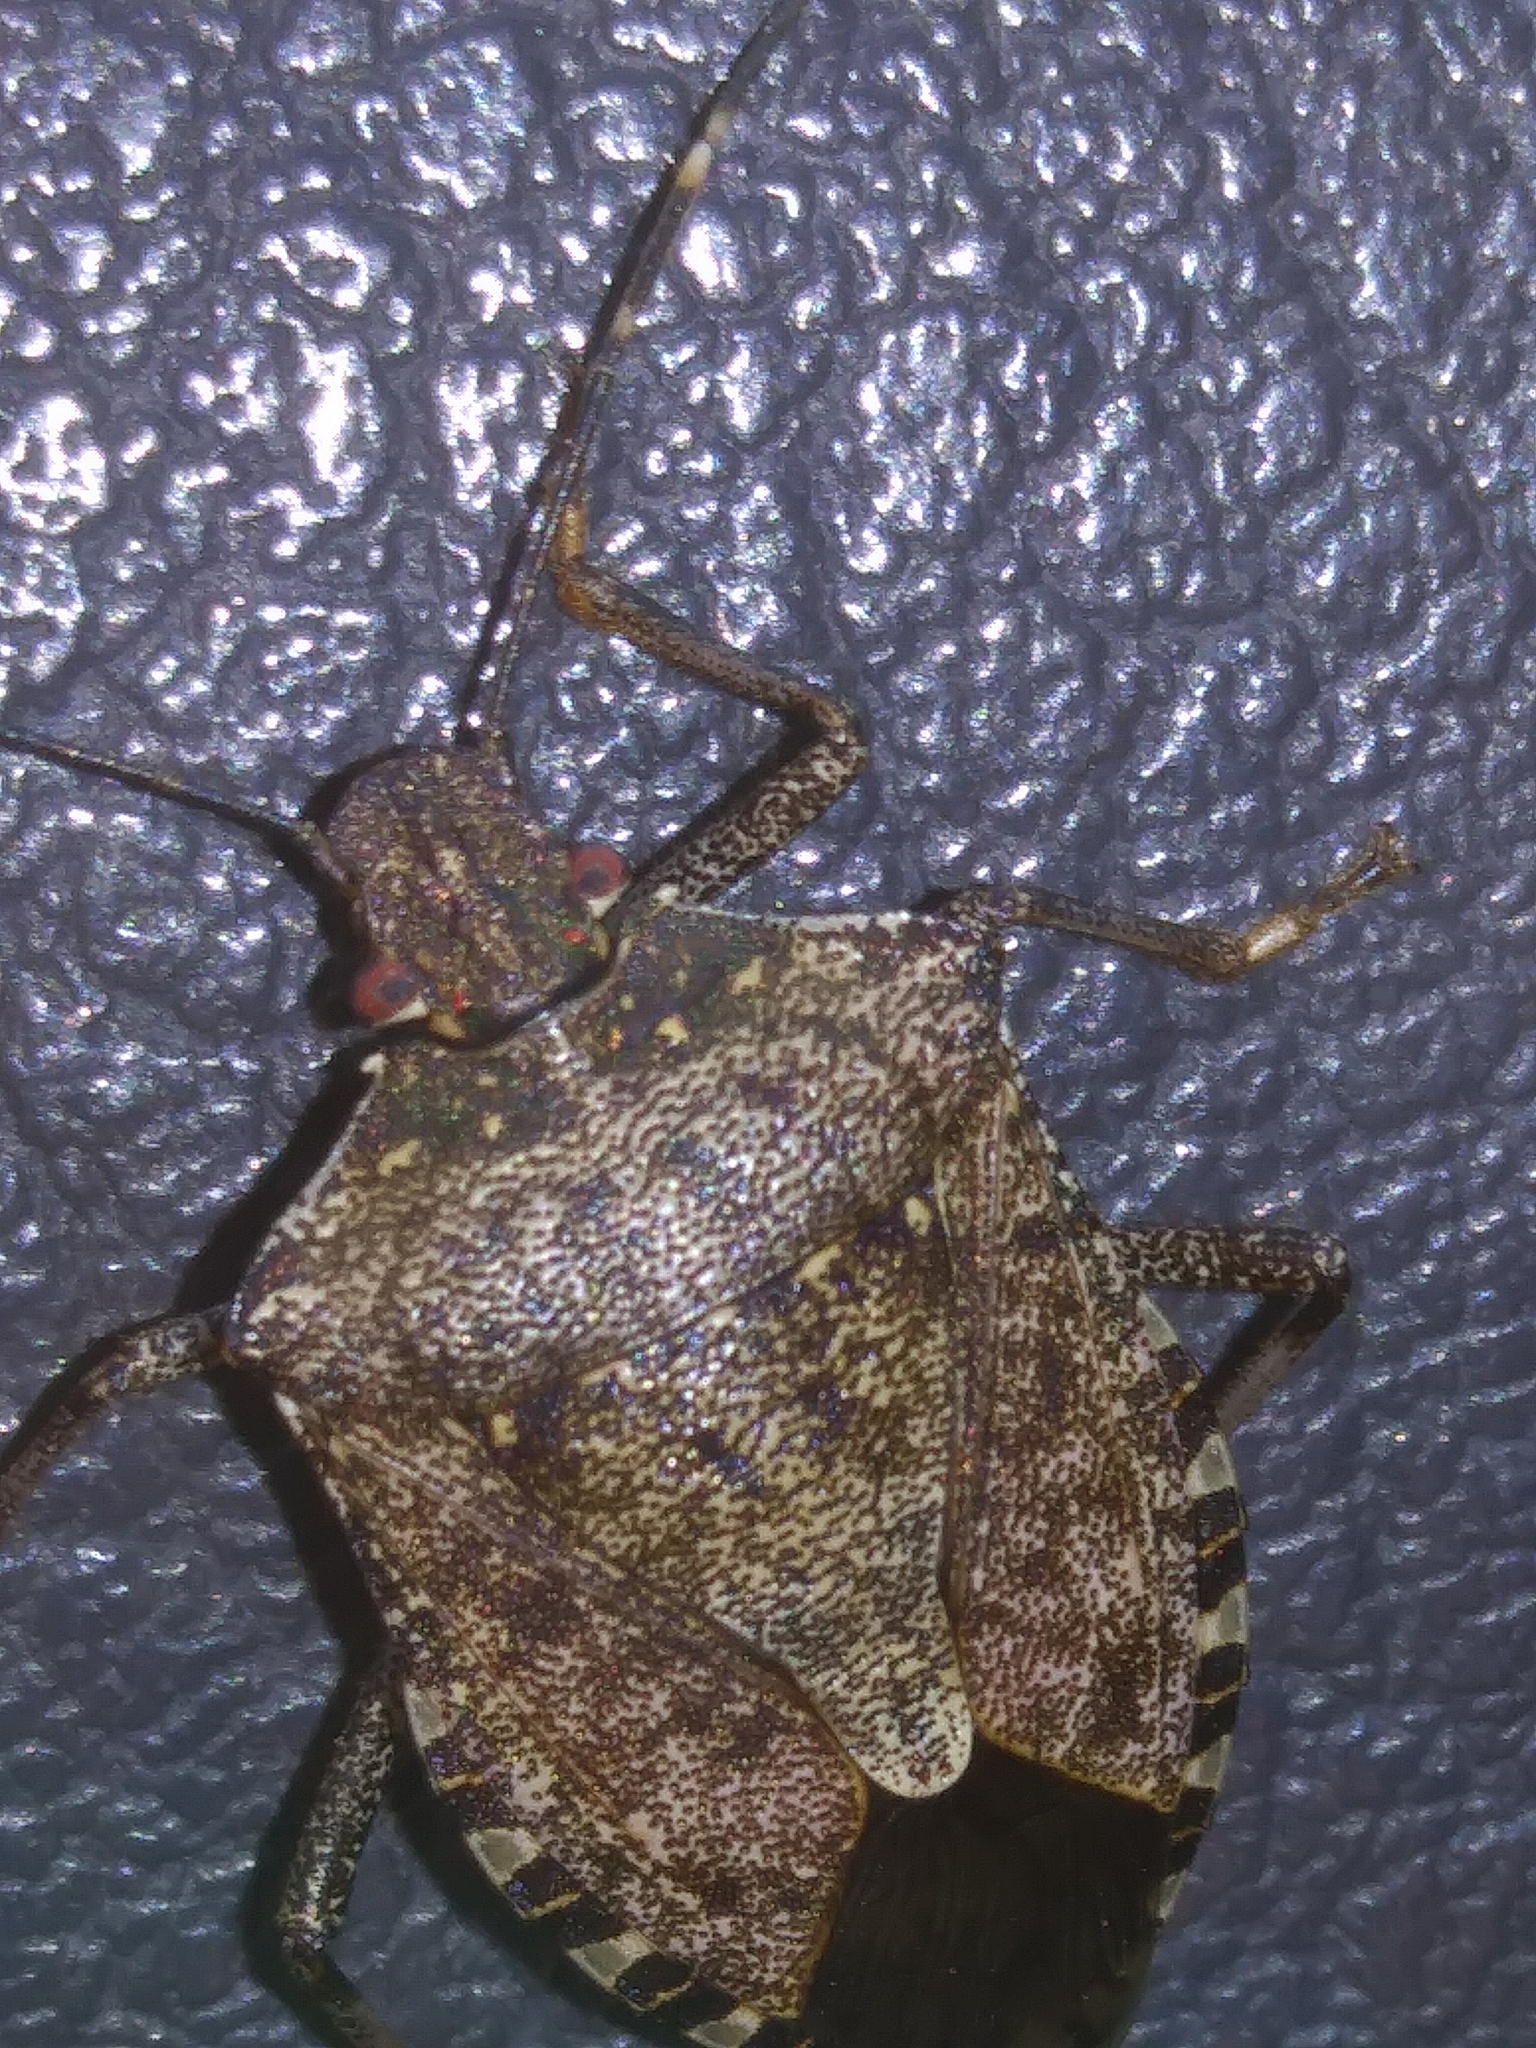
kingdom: Animalia
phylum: Arthropoda
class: Insecta
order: Hemiptera
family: Pentatomidae
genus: Halyomorpha
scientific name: Halyomorpha halys
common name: Brown marmorated stink bug
